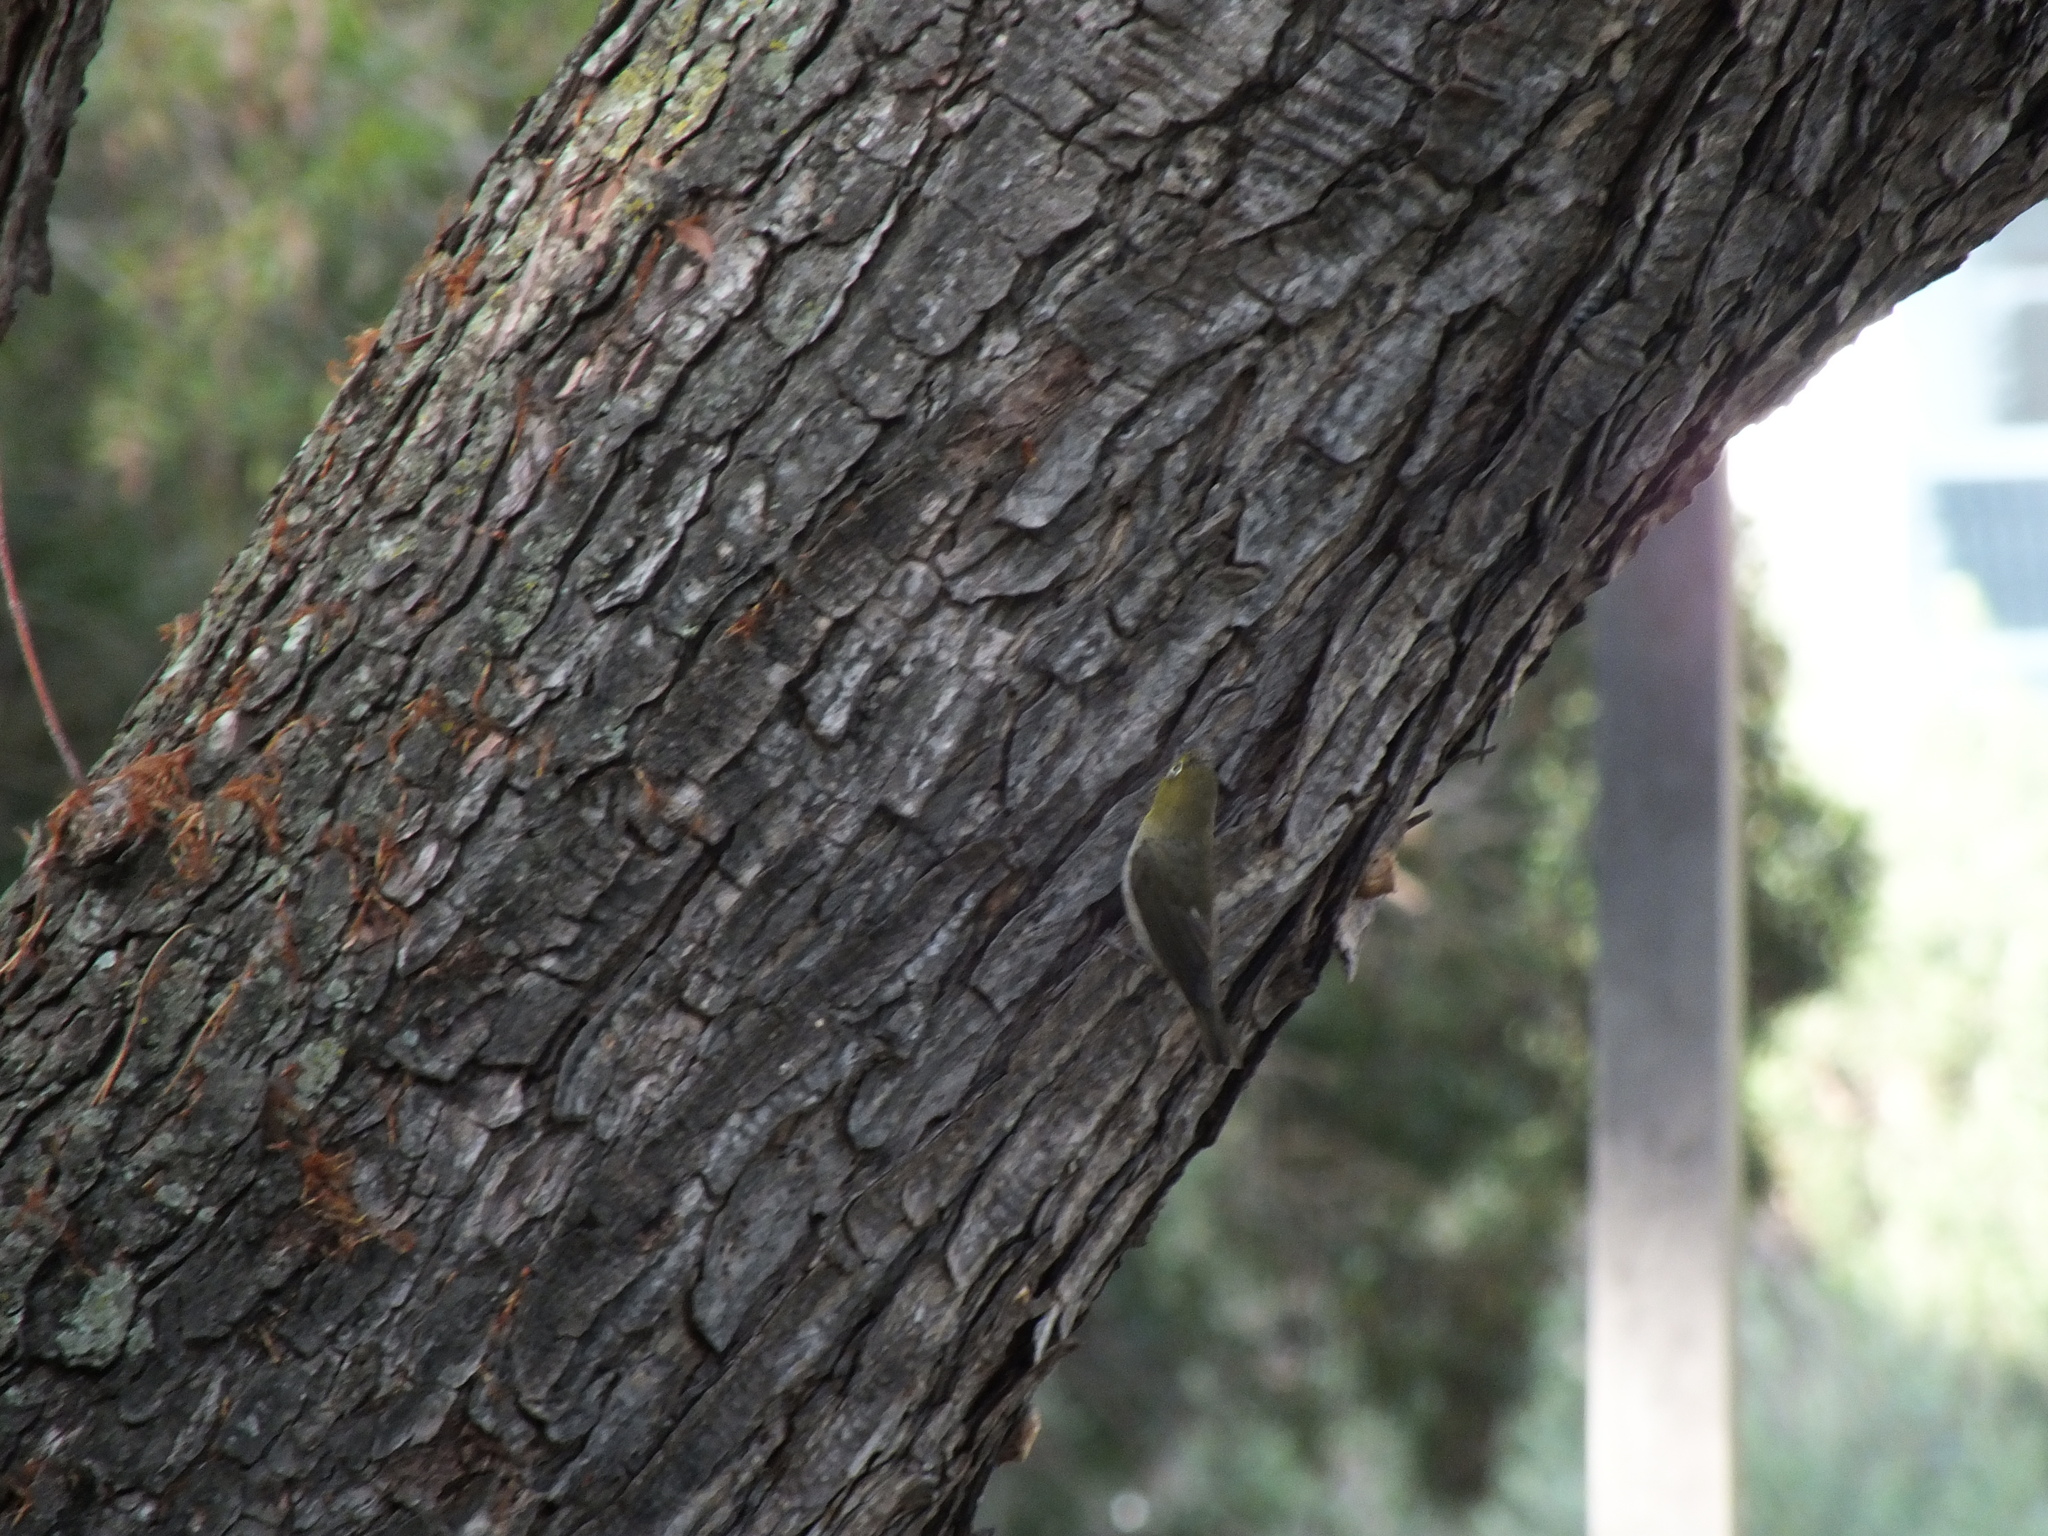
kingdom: Animalia
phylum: Chordata
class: Aves
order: Passeriformes
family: Zosteropidae
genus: Zosterops
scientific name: Zosterops japonicus
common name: Japanese white-eye
